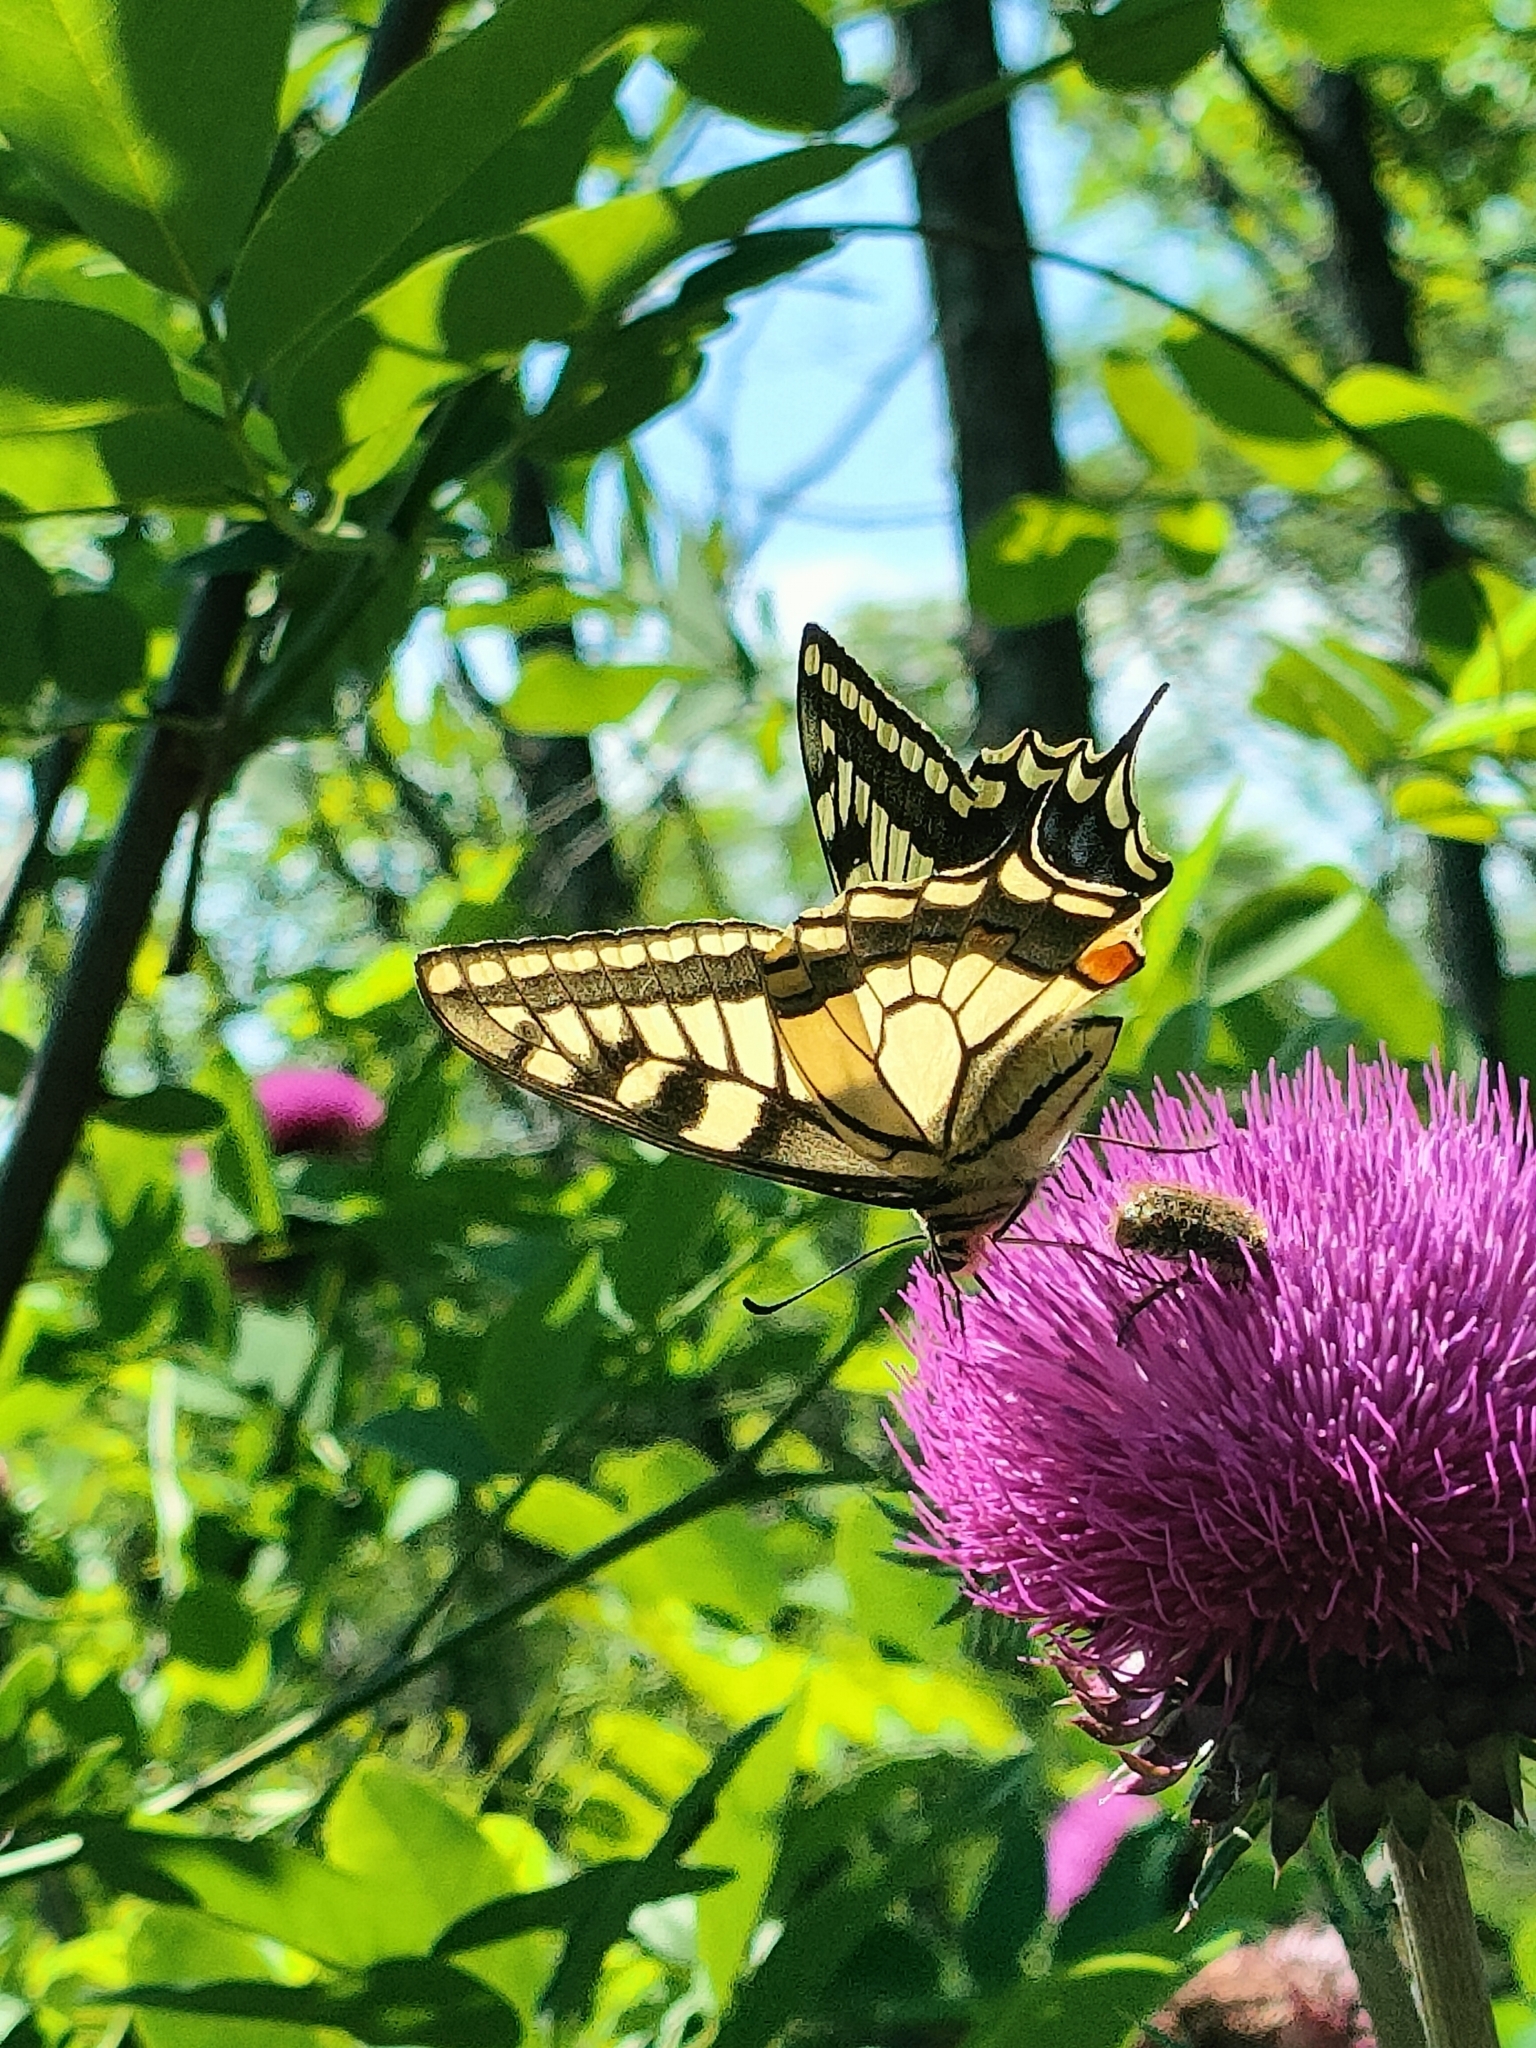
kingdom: Animalia
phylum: Arthropoda
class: Insecta
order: Lepidoptera
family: Papilionidae
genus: Papilio
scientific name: Papilio machaon
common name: Swallowtail
